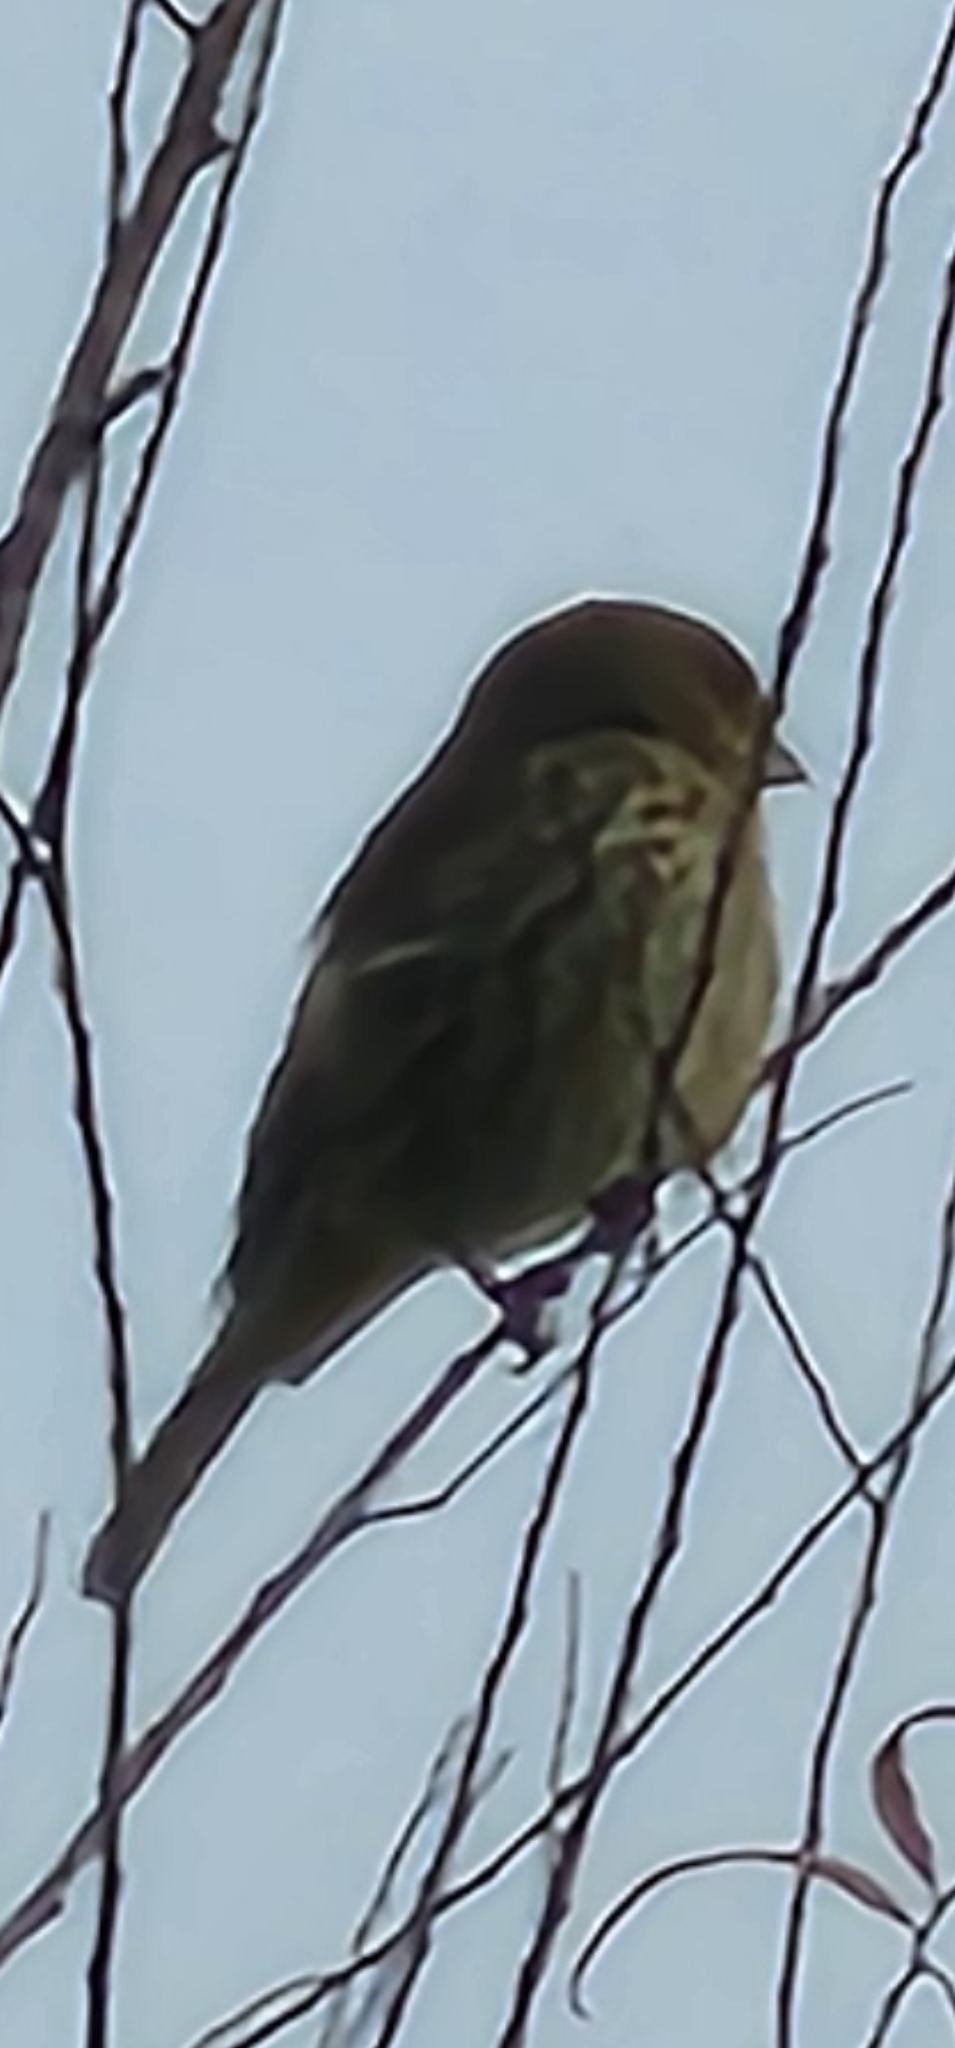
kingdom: Animalia
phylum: Chordata
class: Aves
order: Passeriformes
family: Fringillidae
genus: Haemorhous
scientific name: Haemorhous mexicanus
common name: House finch
